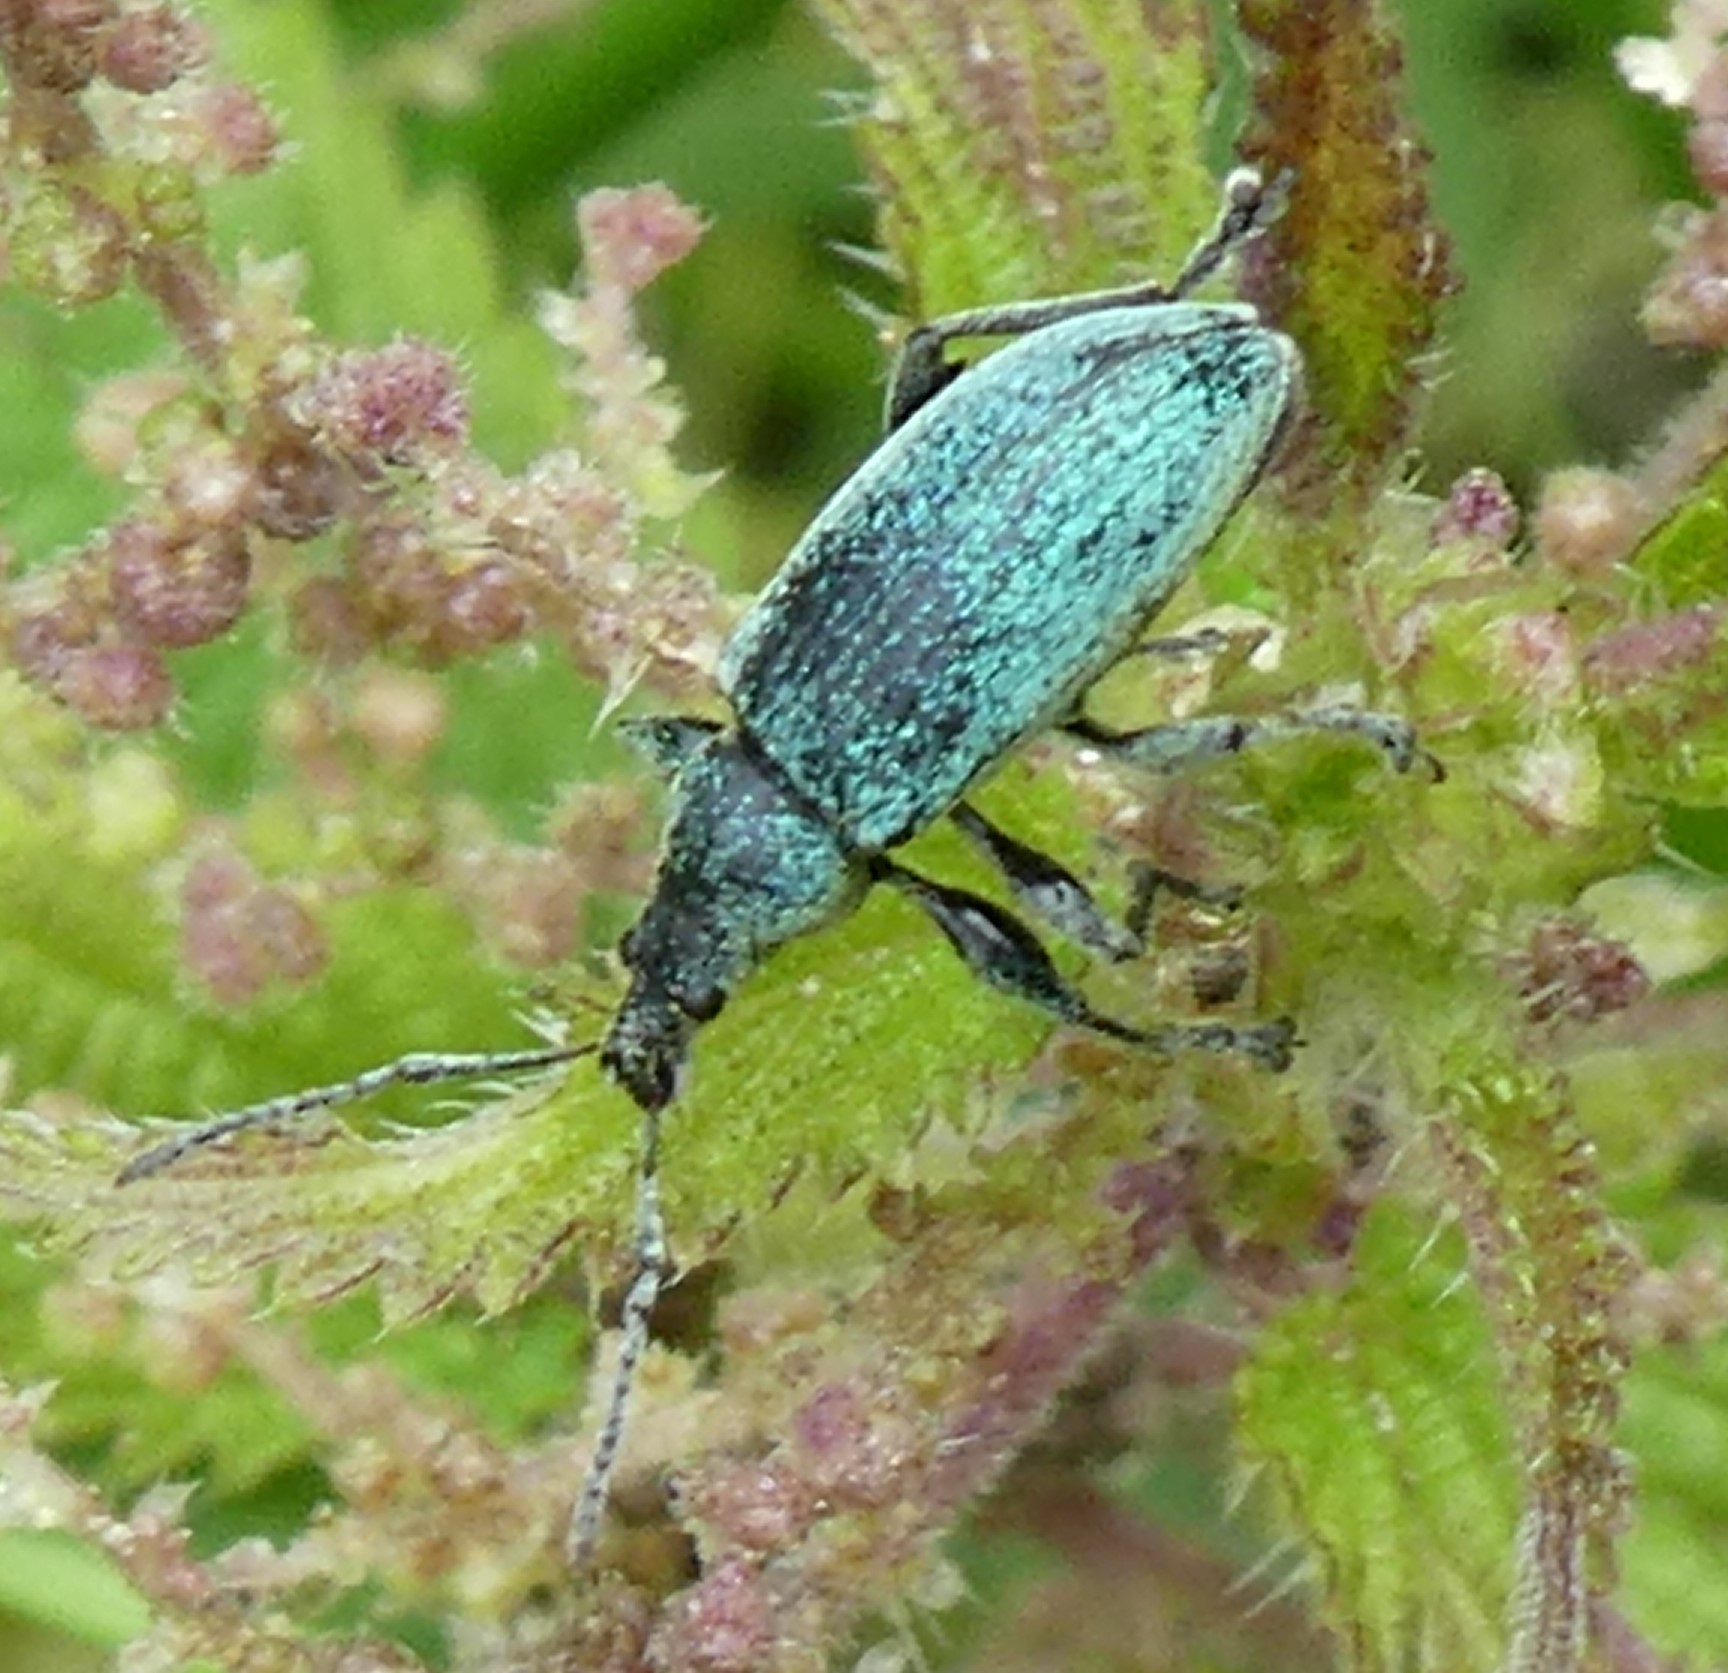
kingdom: Animalia
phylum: Arthropoda
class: Insecta
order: Coleoptera
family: Curculionidae
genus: Phyllobius
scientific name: Phyllobius pomaceus
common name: Green nettle weevil
